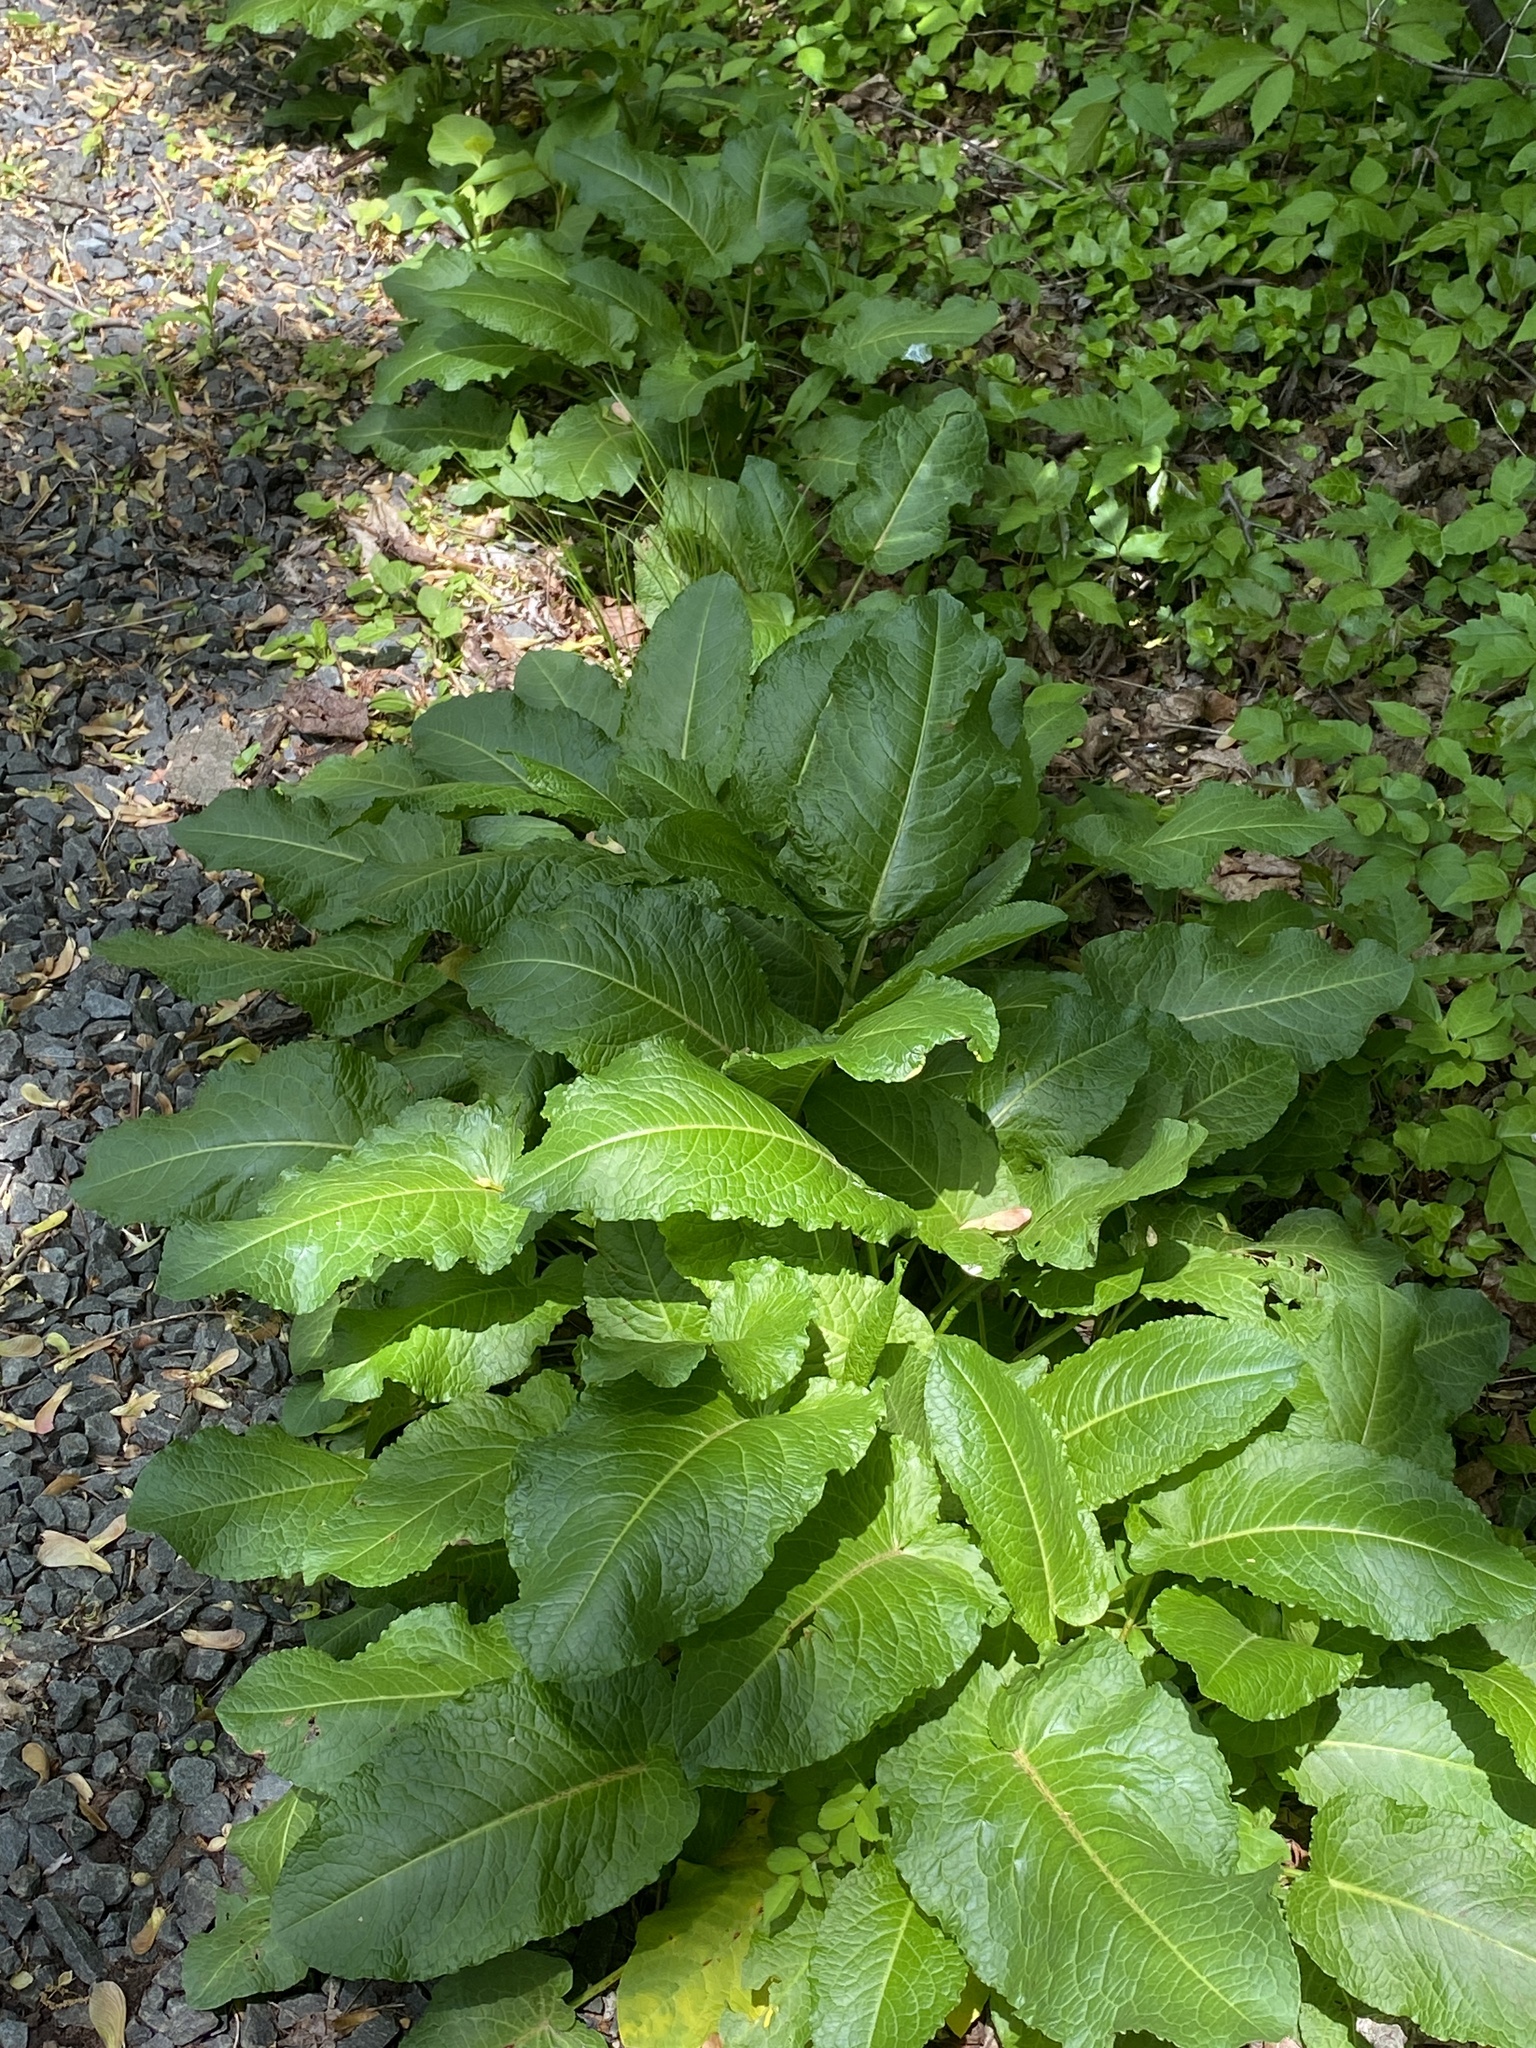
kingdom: Plantae
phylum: Tracheophyta
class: Magnoliopsida
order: Caryophyllales
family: Polygonaceae
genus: Rumex
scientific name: Rumex obtusifolius
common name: Bitter dock
